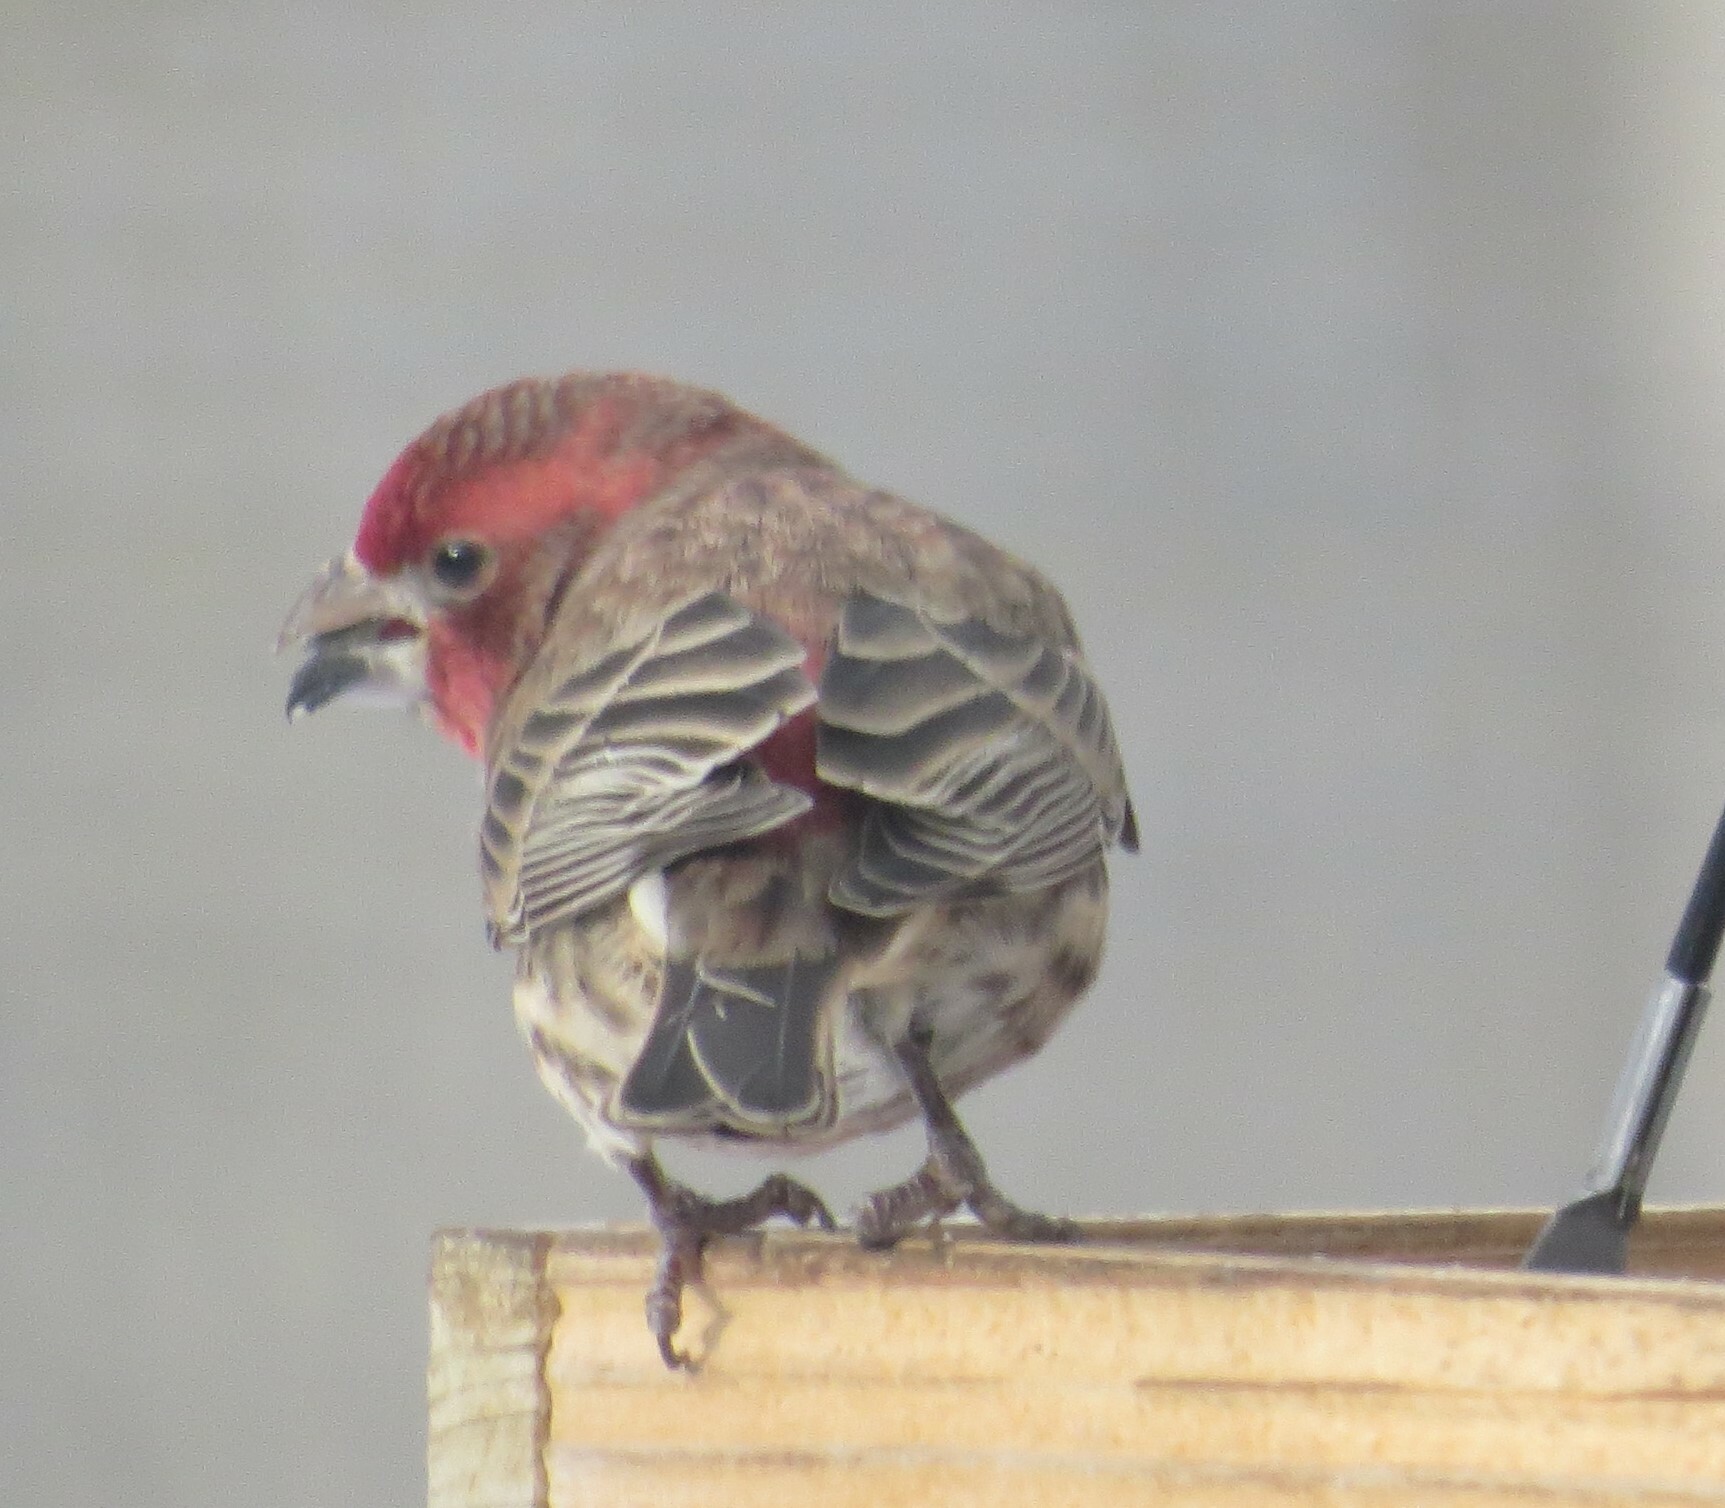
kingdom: Animalia
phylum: Chordata
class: Aves
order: Passeriformes
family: Fringillidae
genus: Haemorhous
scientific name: Haemorhous mexicanus
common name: House finch
